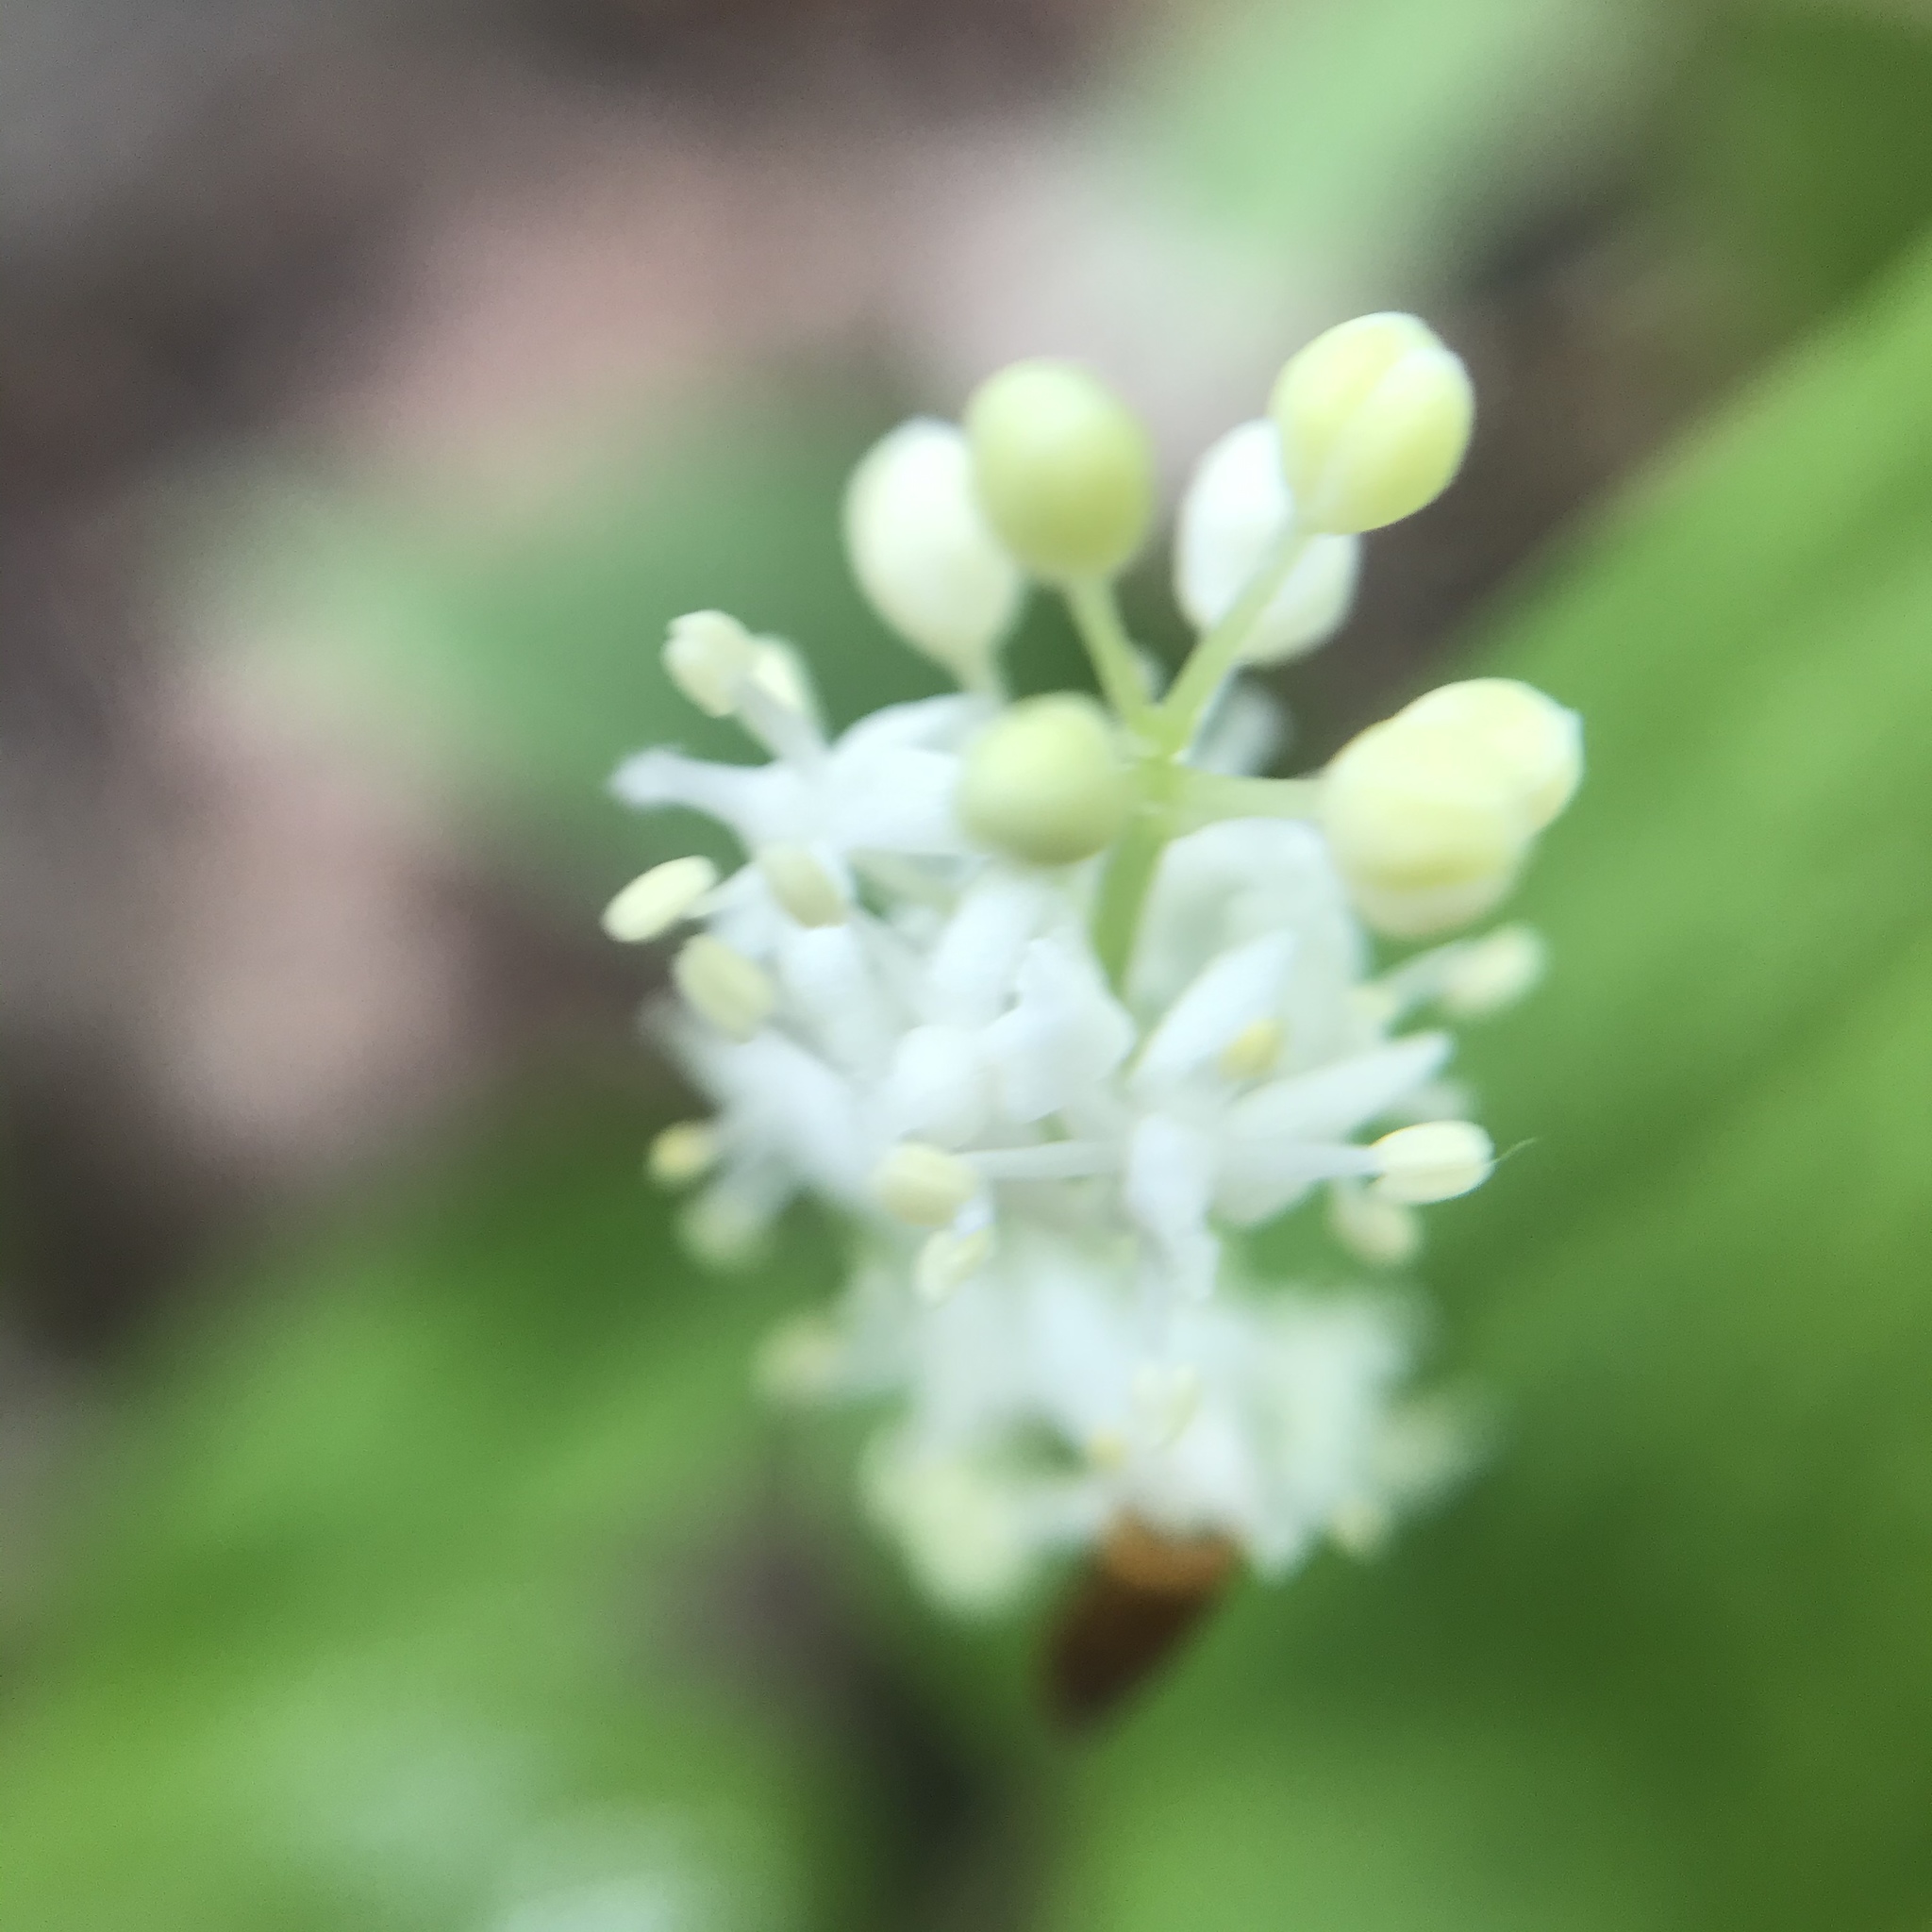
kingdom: Plantae
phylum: Tracheophyta
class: Liliopsida
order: Asparagales
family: Asparagaceae
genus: Maianthemum
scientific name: Maianthemum canadense
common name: False lily-of-the-valley
